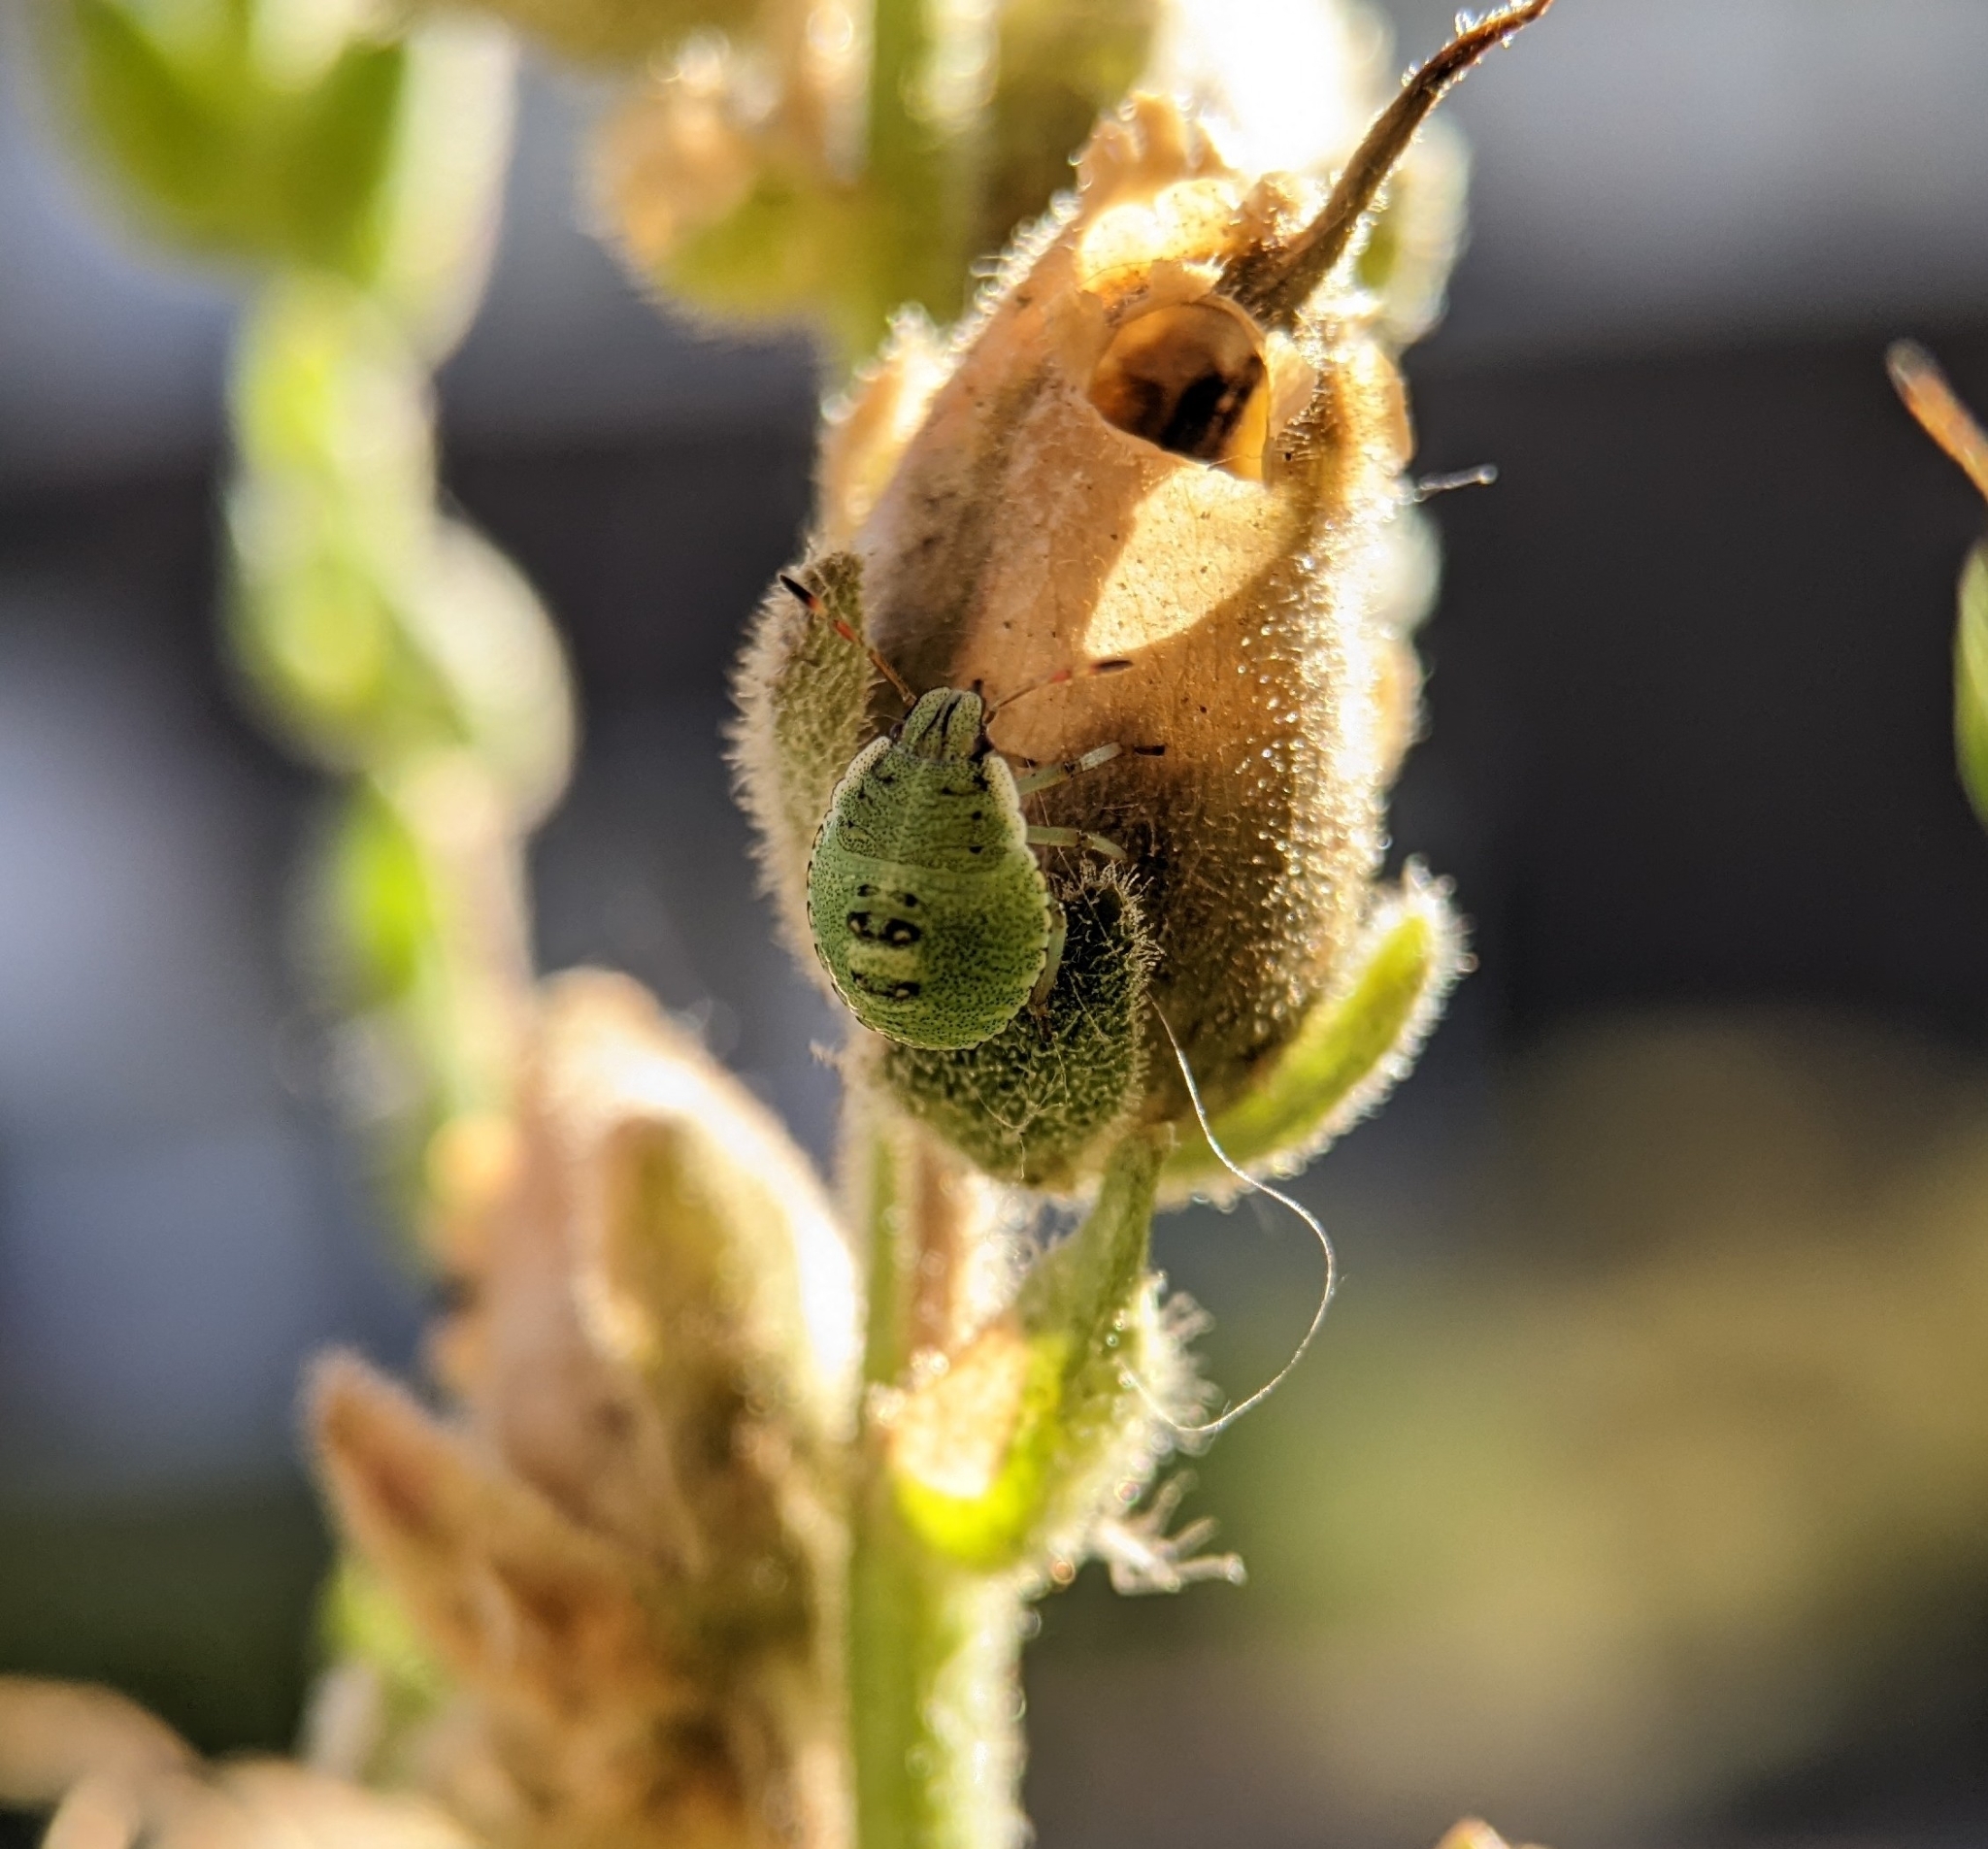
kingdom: Animalia
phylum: Arthropoda
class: Insecta
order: Hemiptera
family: Pentatomidae
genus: Palomena
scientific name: Palomena prasina
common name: Green shieldbug
